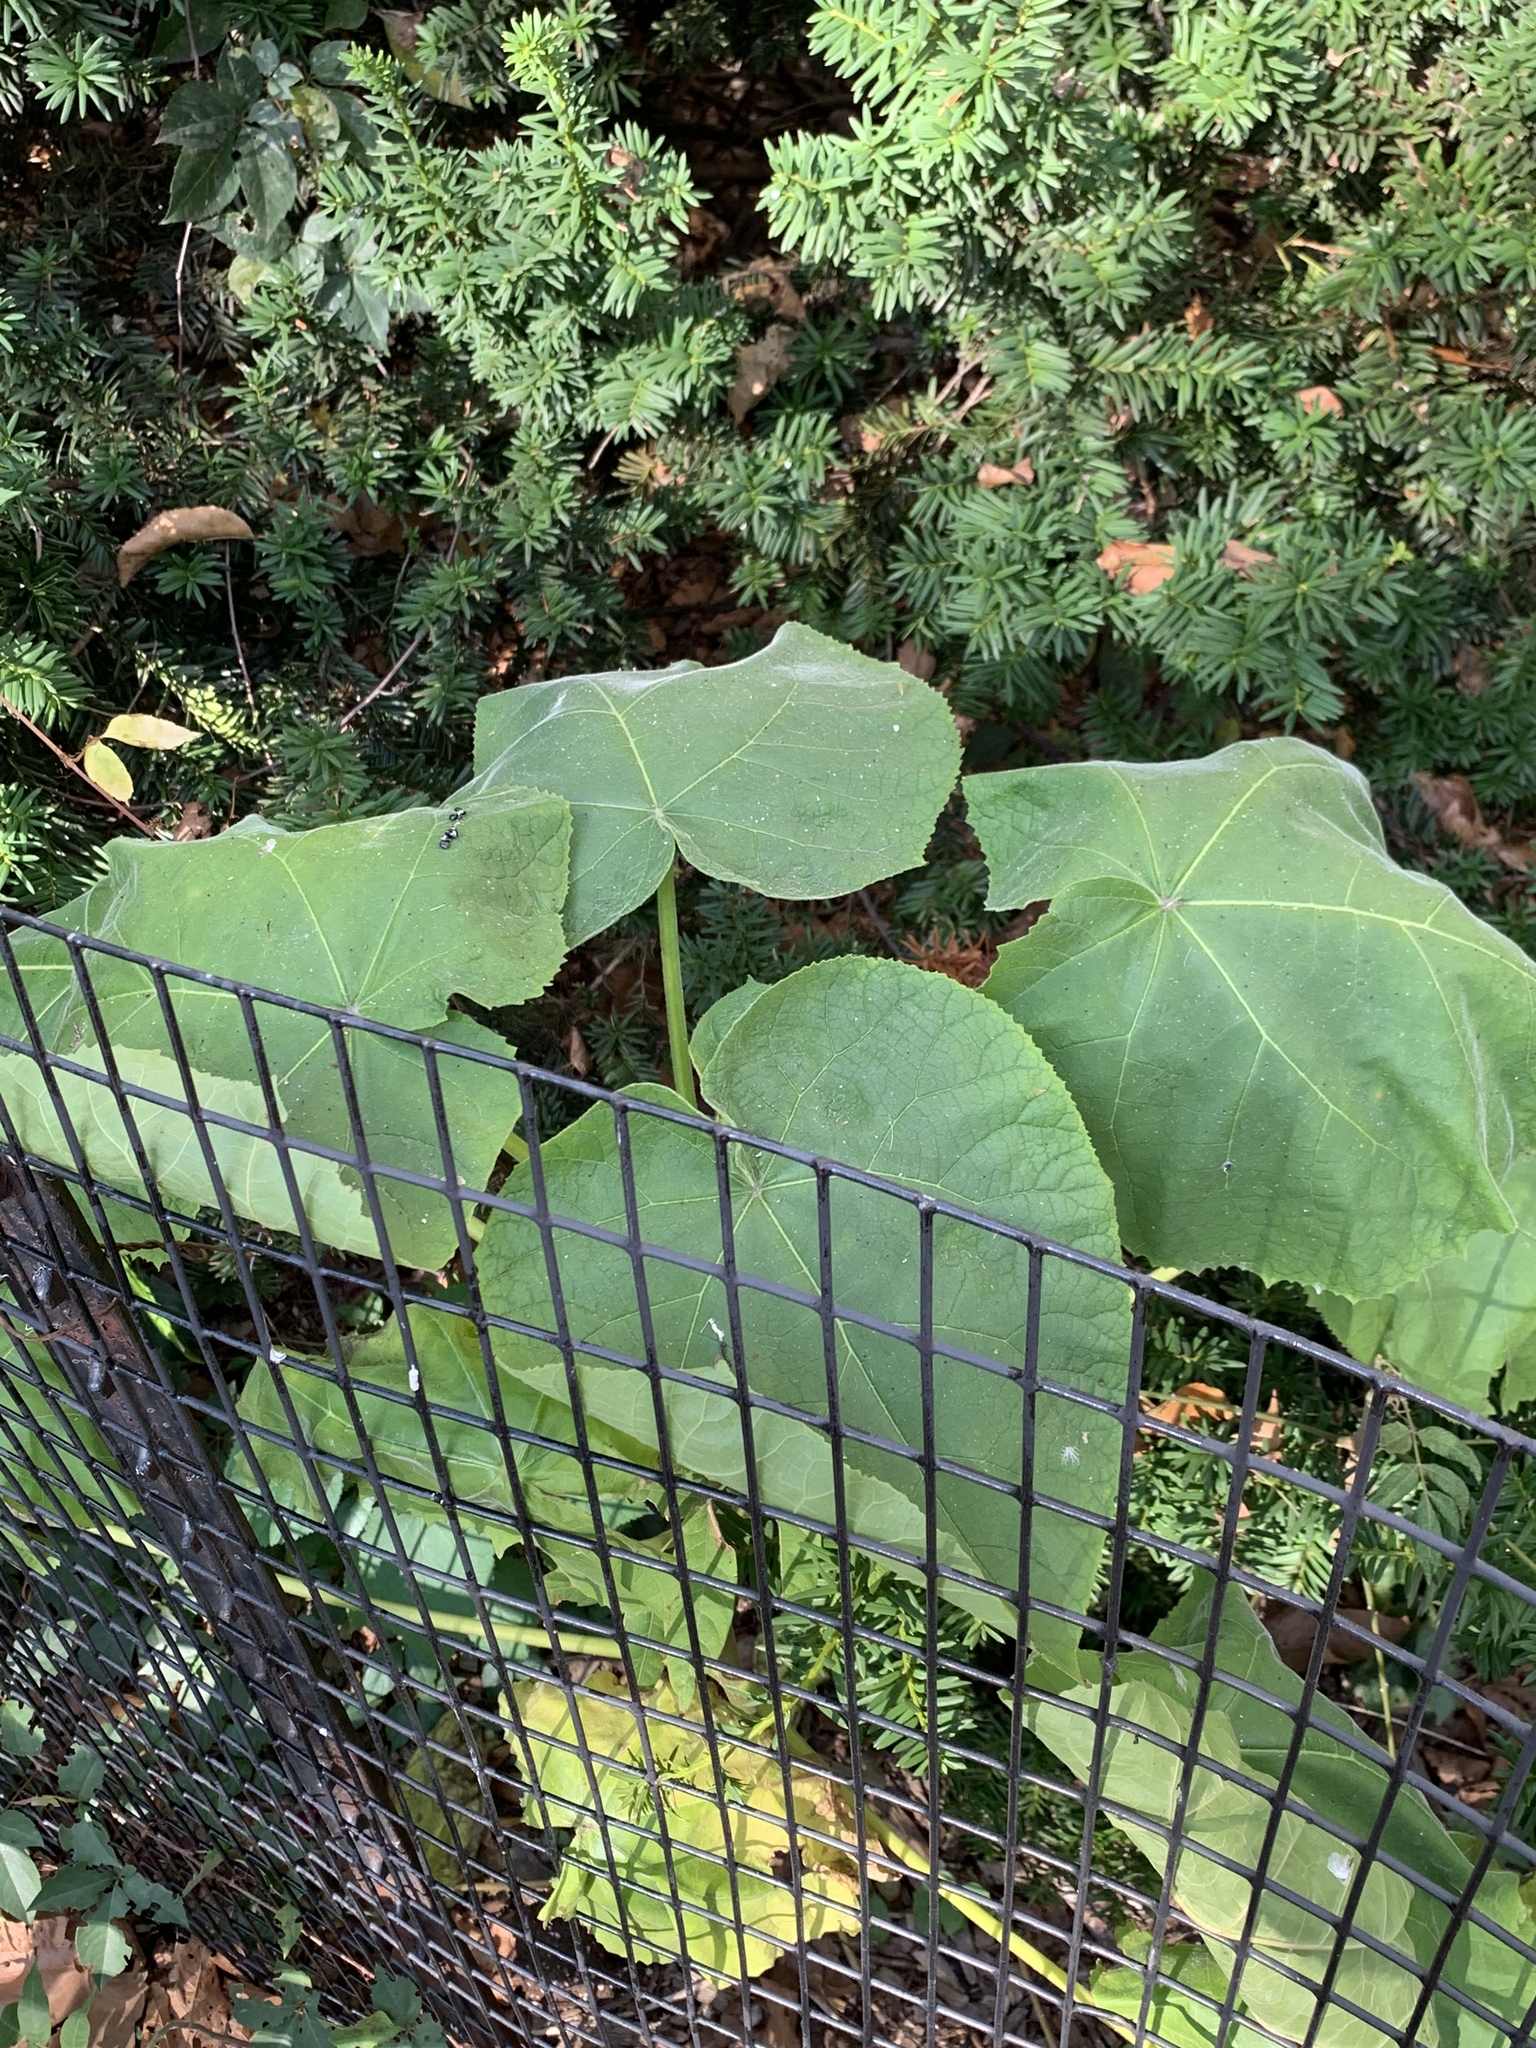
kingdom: Plantae
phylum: Tracheophyta
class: Magnoliopsida
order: Lamiales
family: Paulowniaceae
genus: Paulownia
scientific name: Paulownia tomentosa
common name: Foxglove-tree
